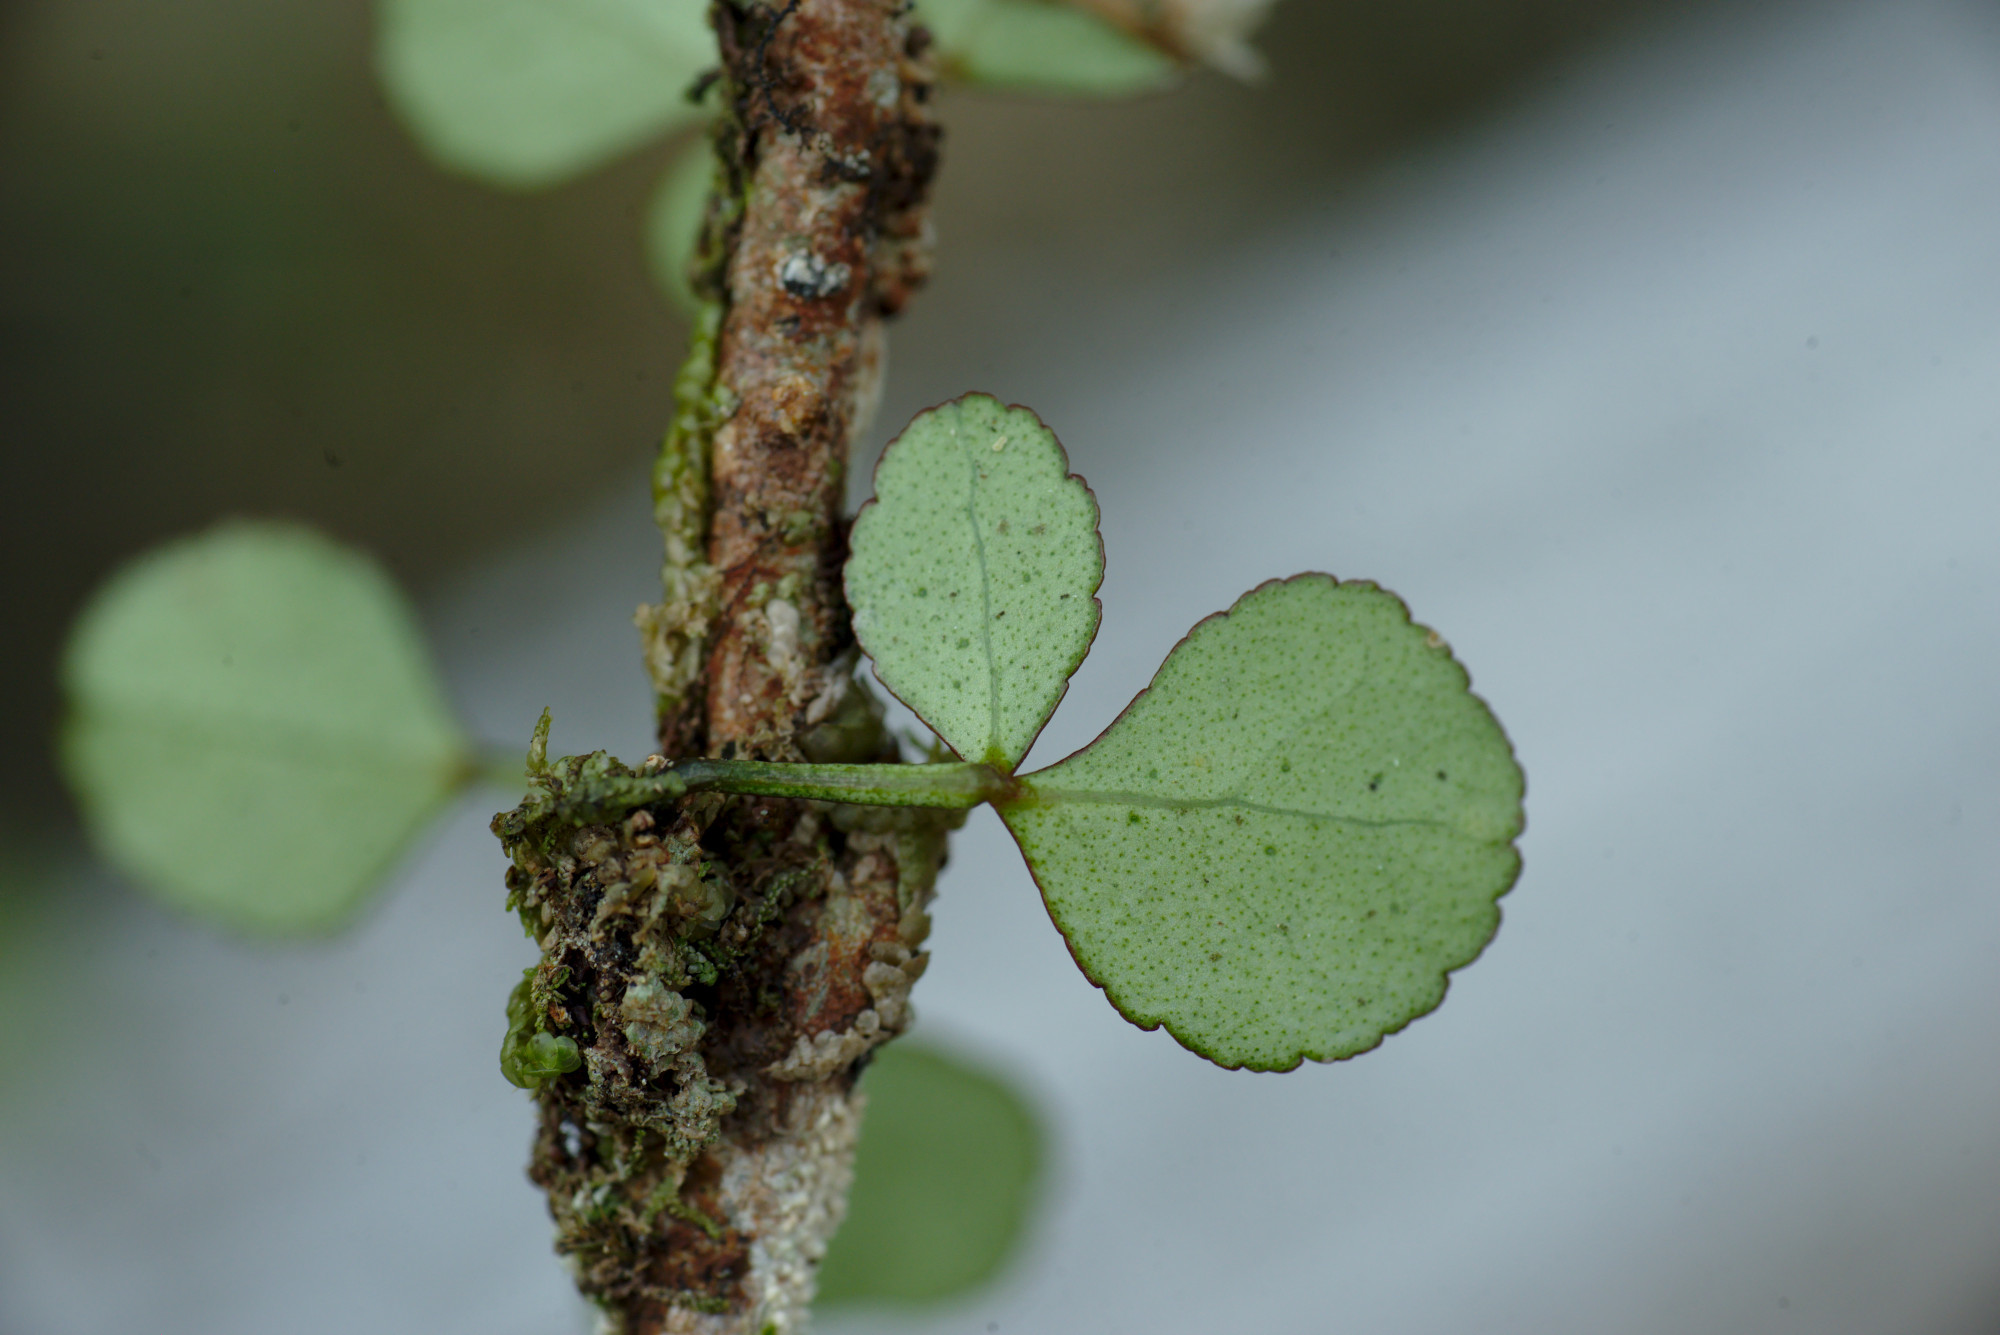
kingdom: Plantae
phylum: Tracheophyta
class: Magnoliopsida
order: Sapindales
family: Rutaceae
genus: Melicope
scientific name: Melicope simplex
